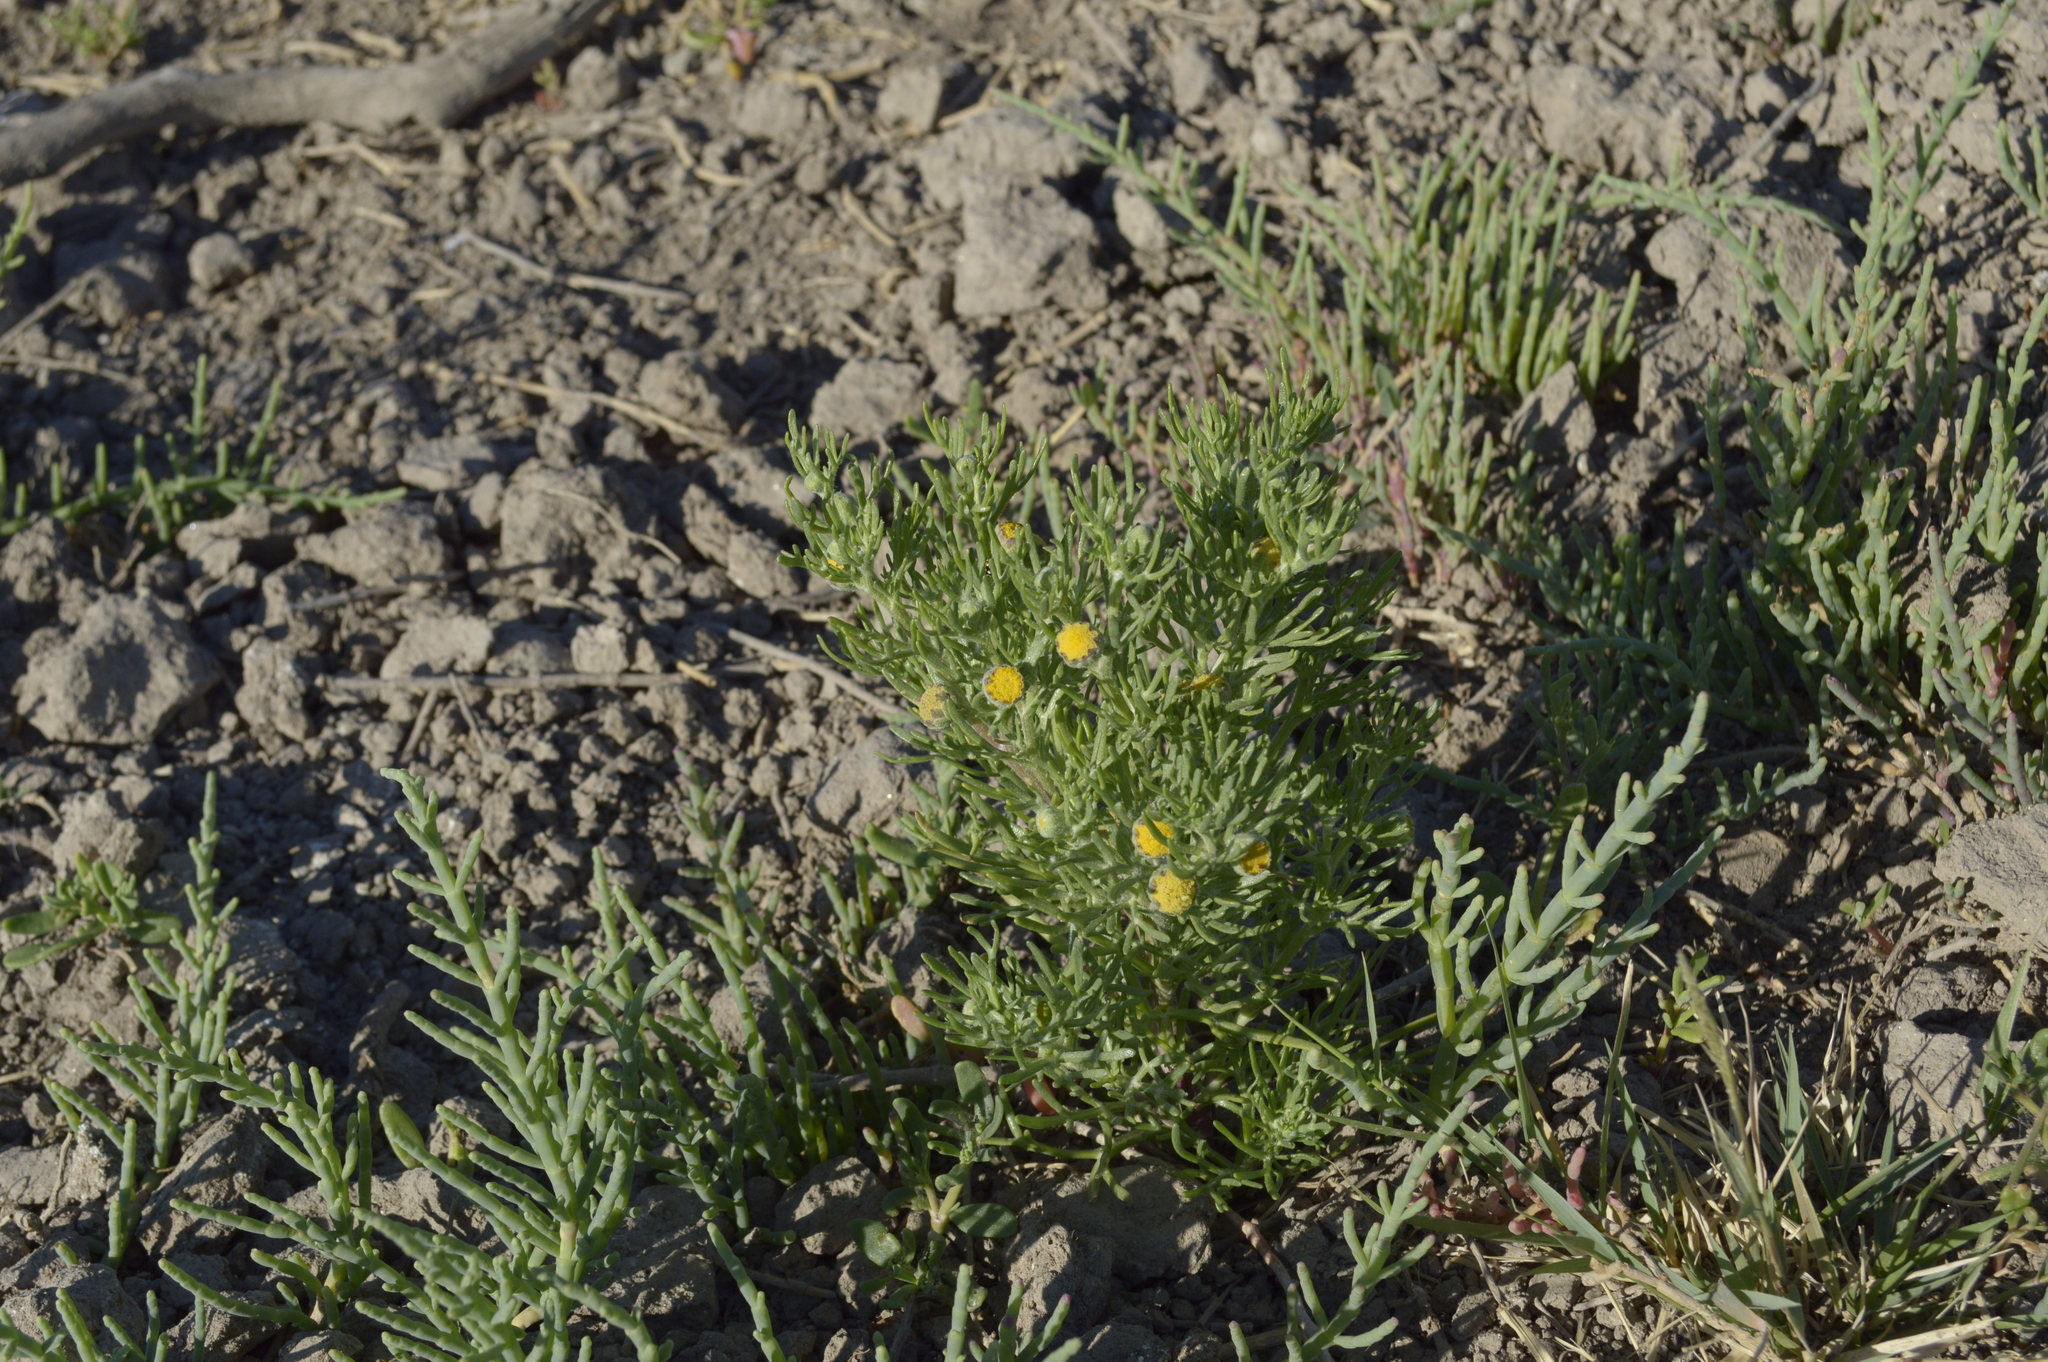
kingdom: Plantae
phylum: Tracheophyta
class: Magnoliopsida
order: Asterales
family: Asteraceae
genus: Hymenoxys
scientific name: Hymenoxys anthemoides
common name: South american rubberweed
